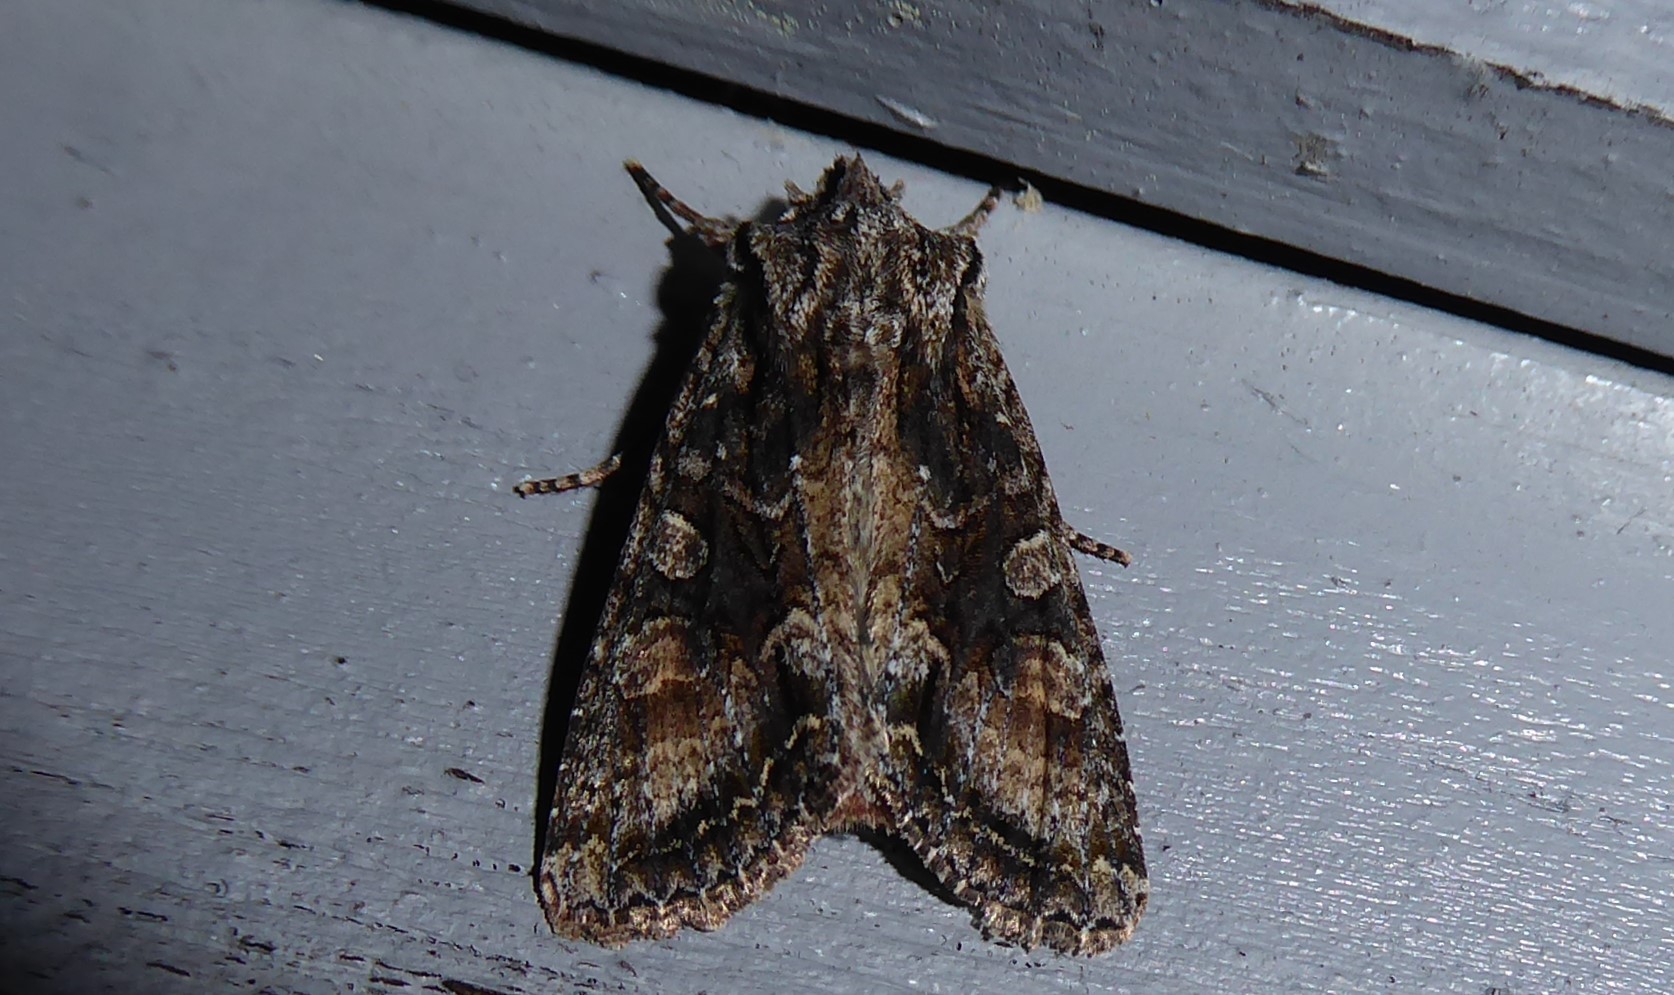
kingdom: Animalia
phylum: Arthropoda
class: Insecta
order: Lepidoptera
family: Noctuidae
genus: Ichneutica
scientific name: Ichneutica mutans
